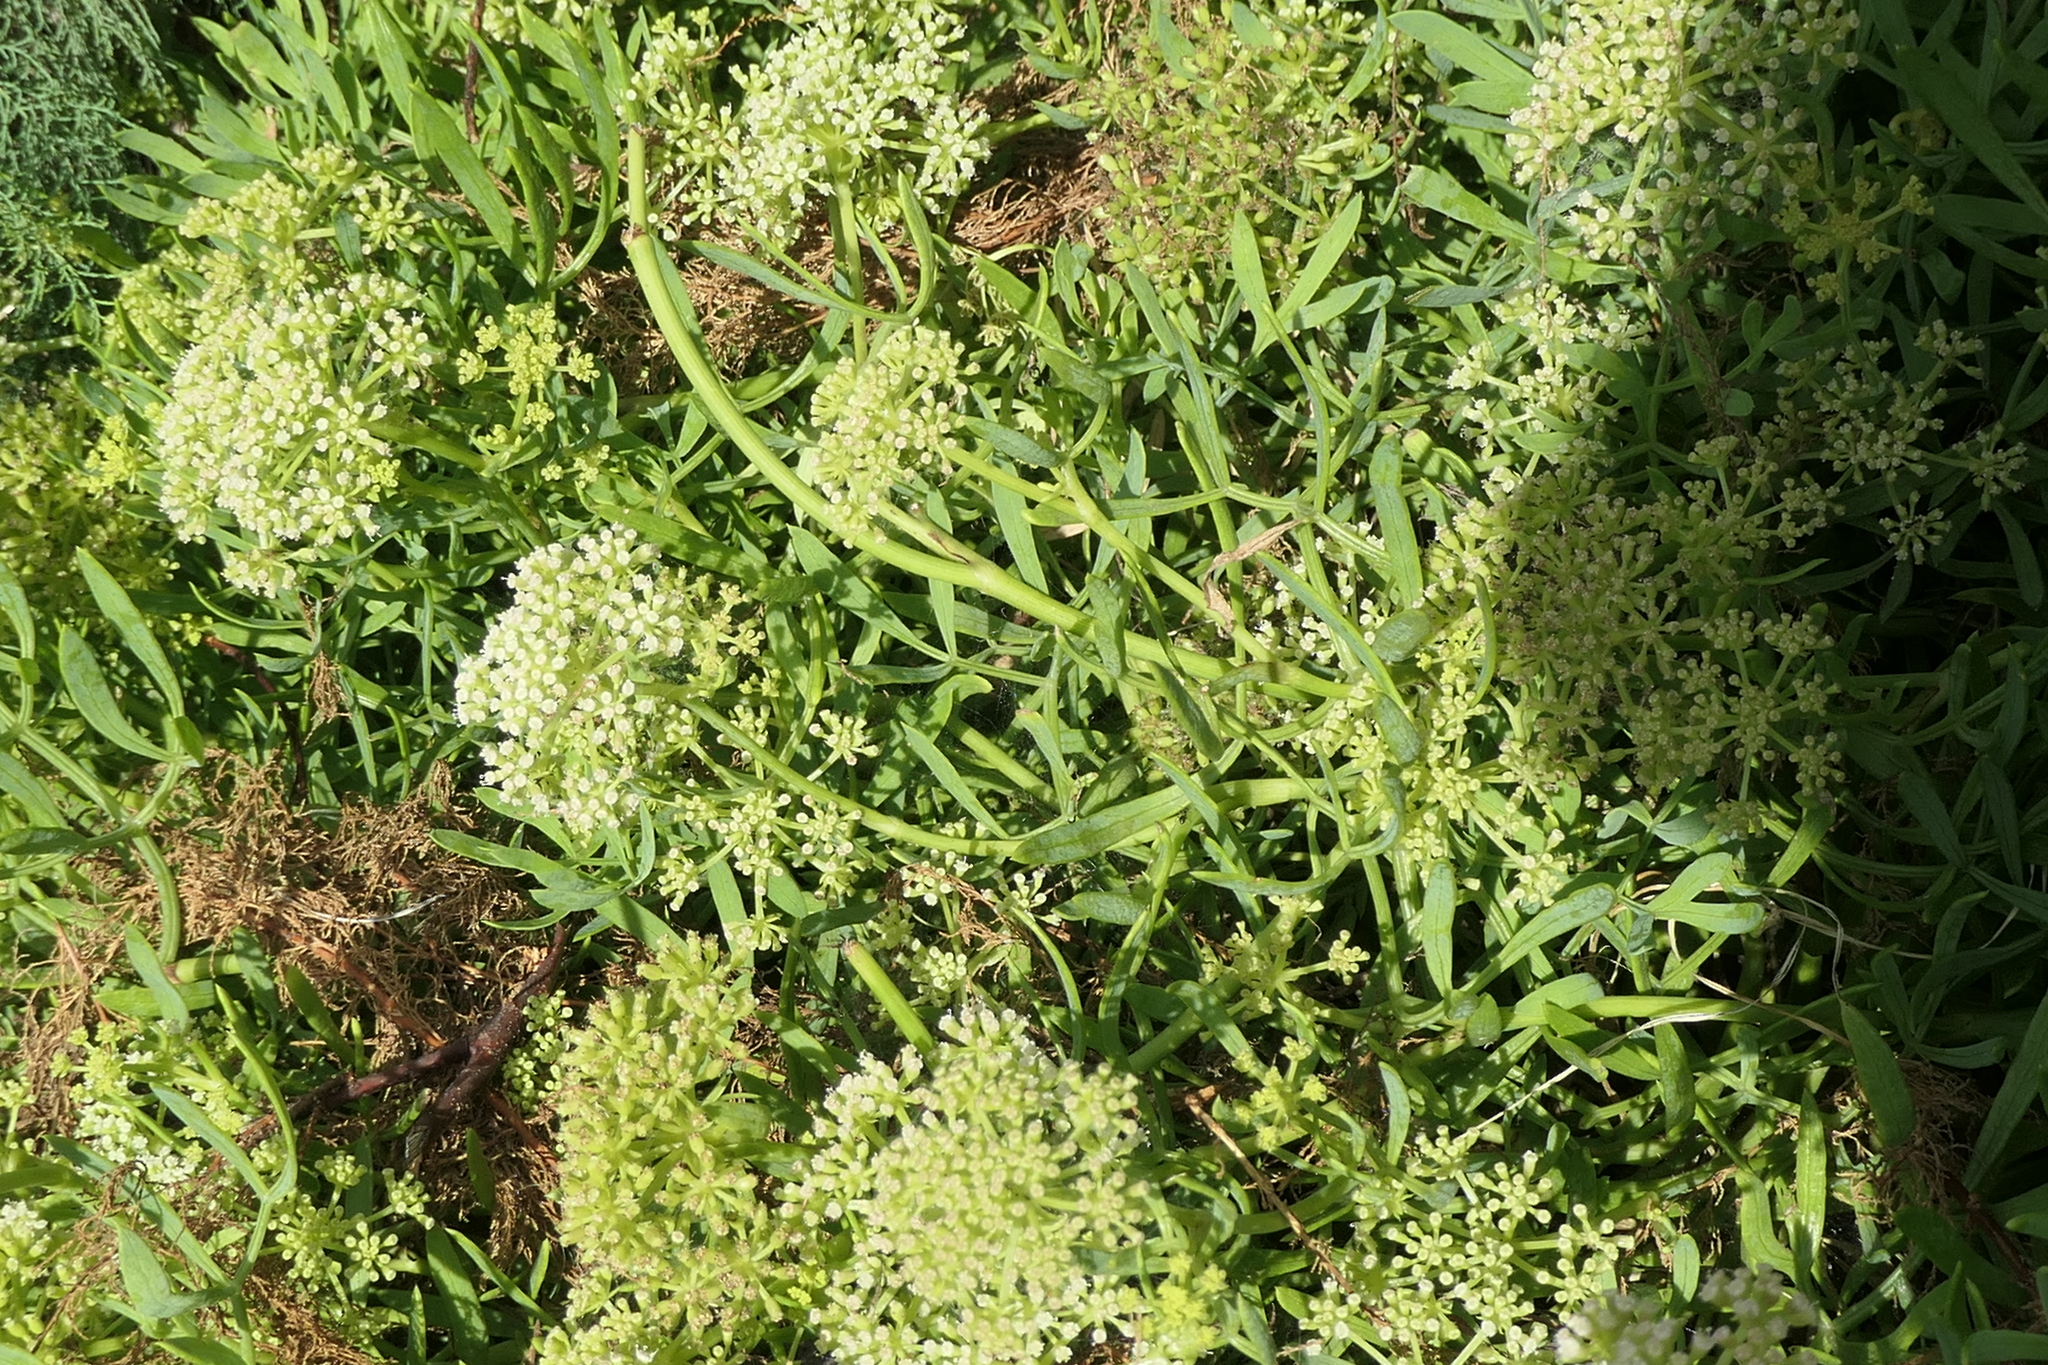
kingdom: Plantae
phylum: Tracheophyta
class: Magnoliopsida
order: Apiales
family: Apiaceae
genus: Crithmum
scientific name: Crithmum maritimum
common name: Rock samphire
